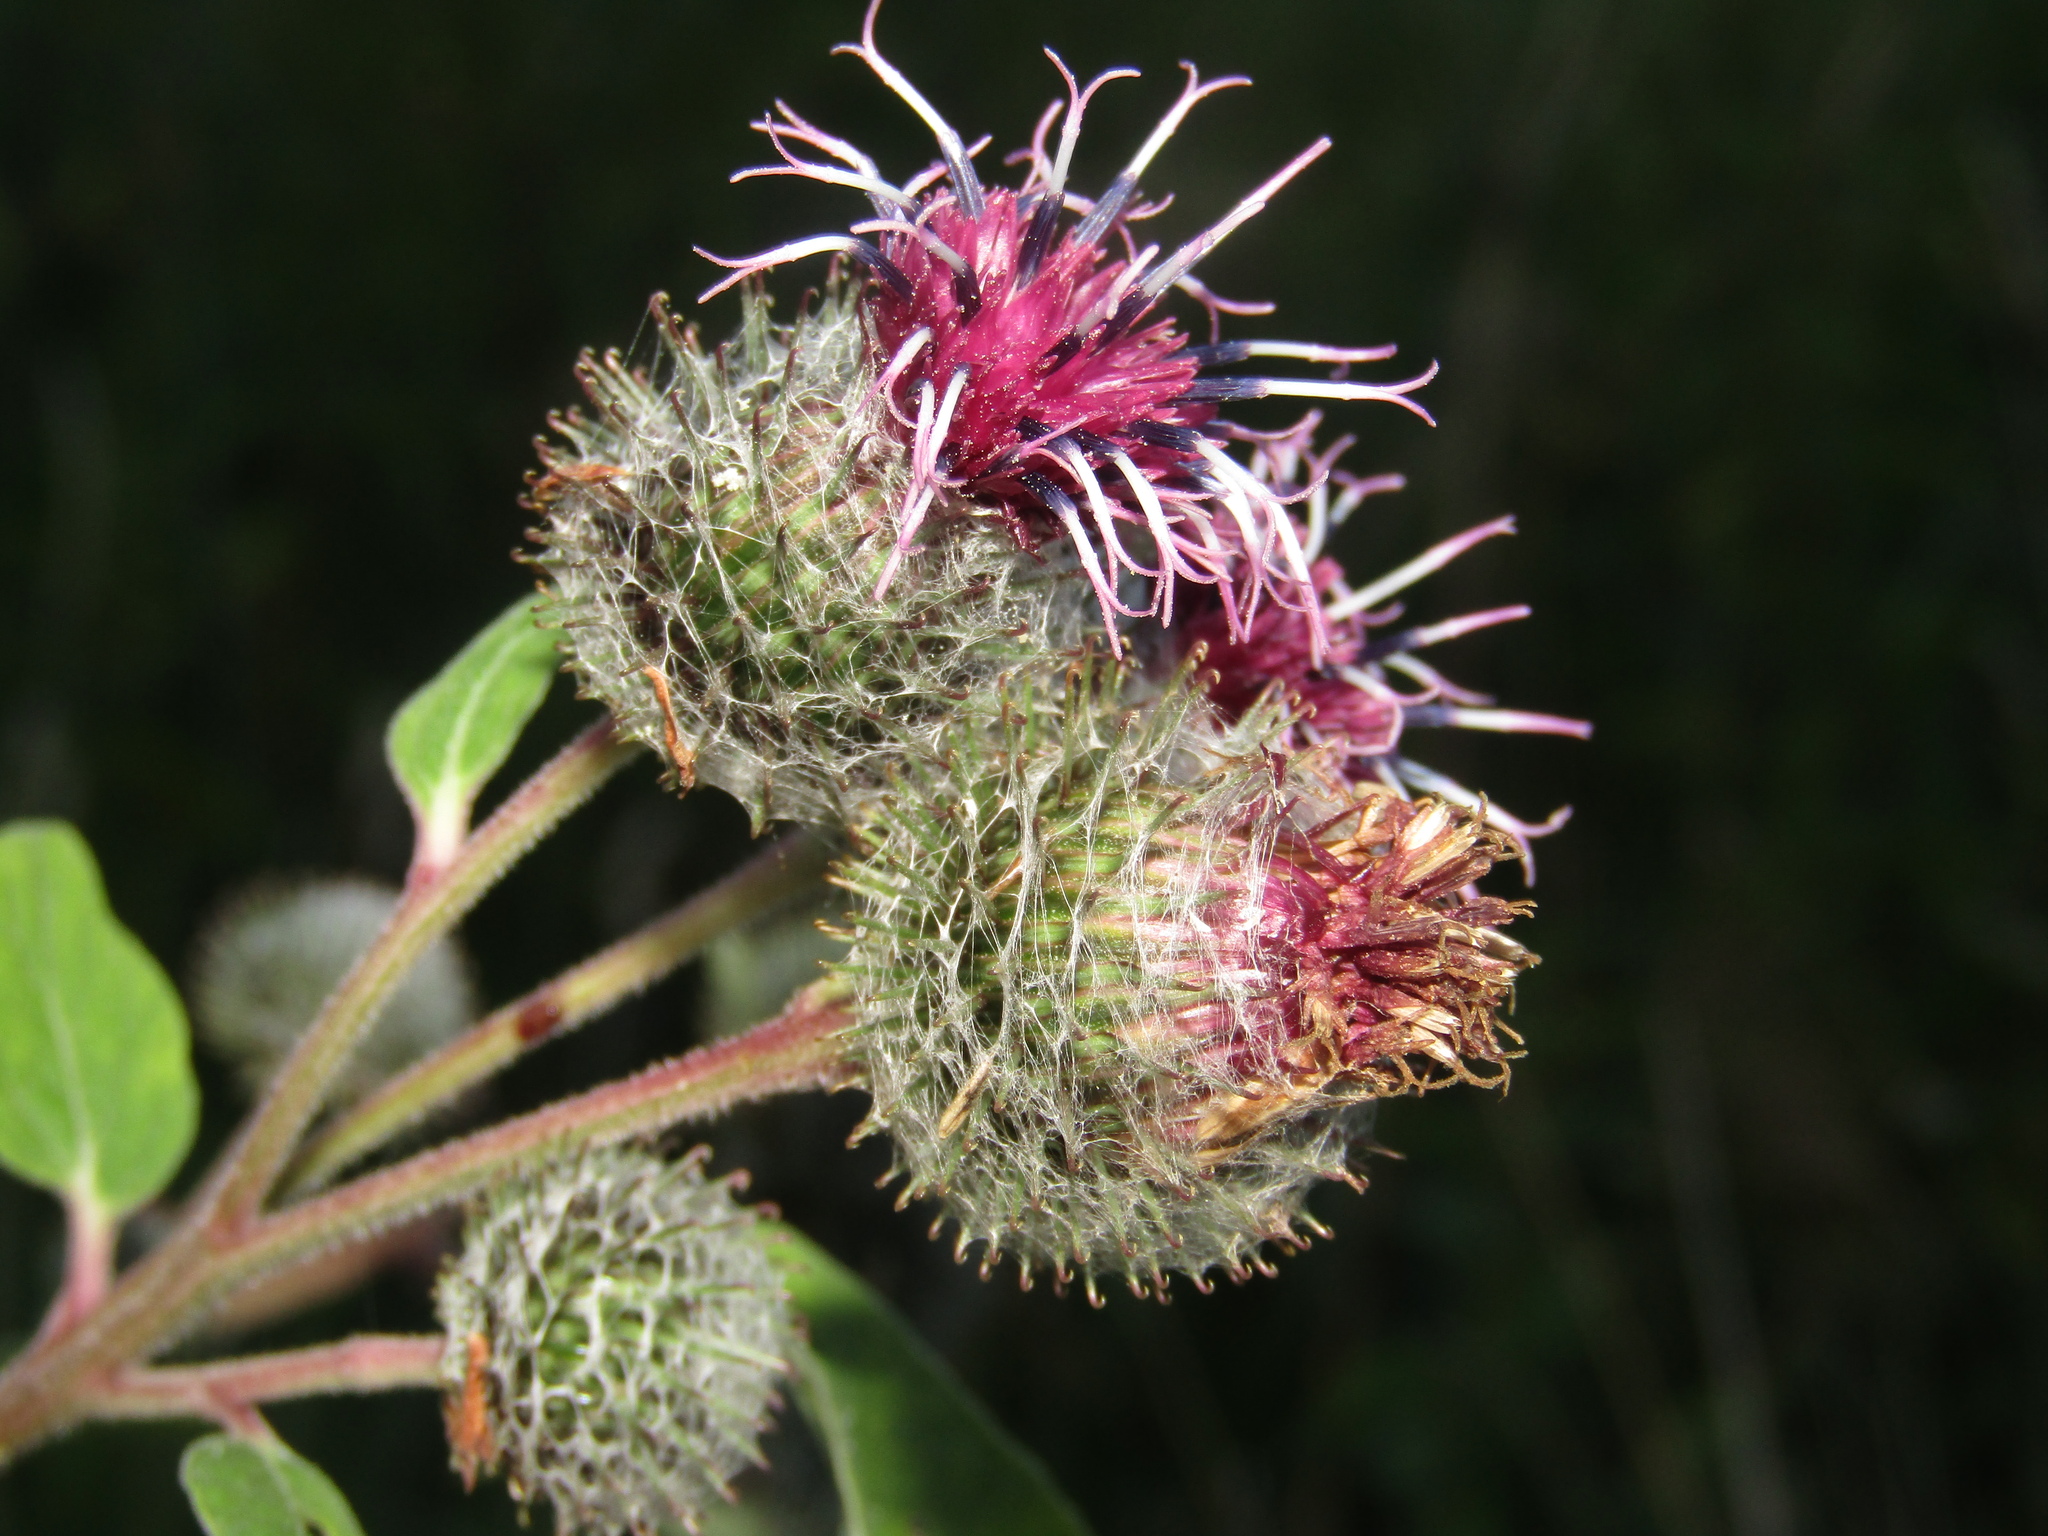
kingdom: Plantae
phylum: Tracheophyta
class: Magnoliopsida
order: Asterales
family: Asteraceae
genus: Arctium
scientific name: Arctium tomentosum
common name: Woolly burdock
